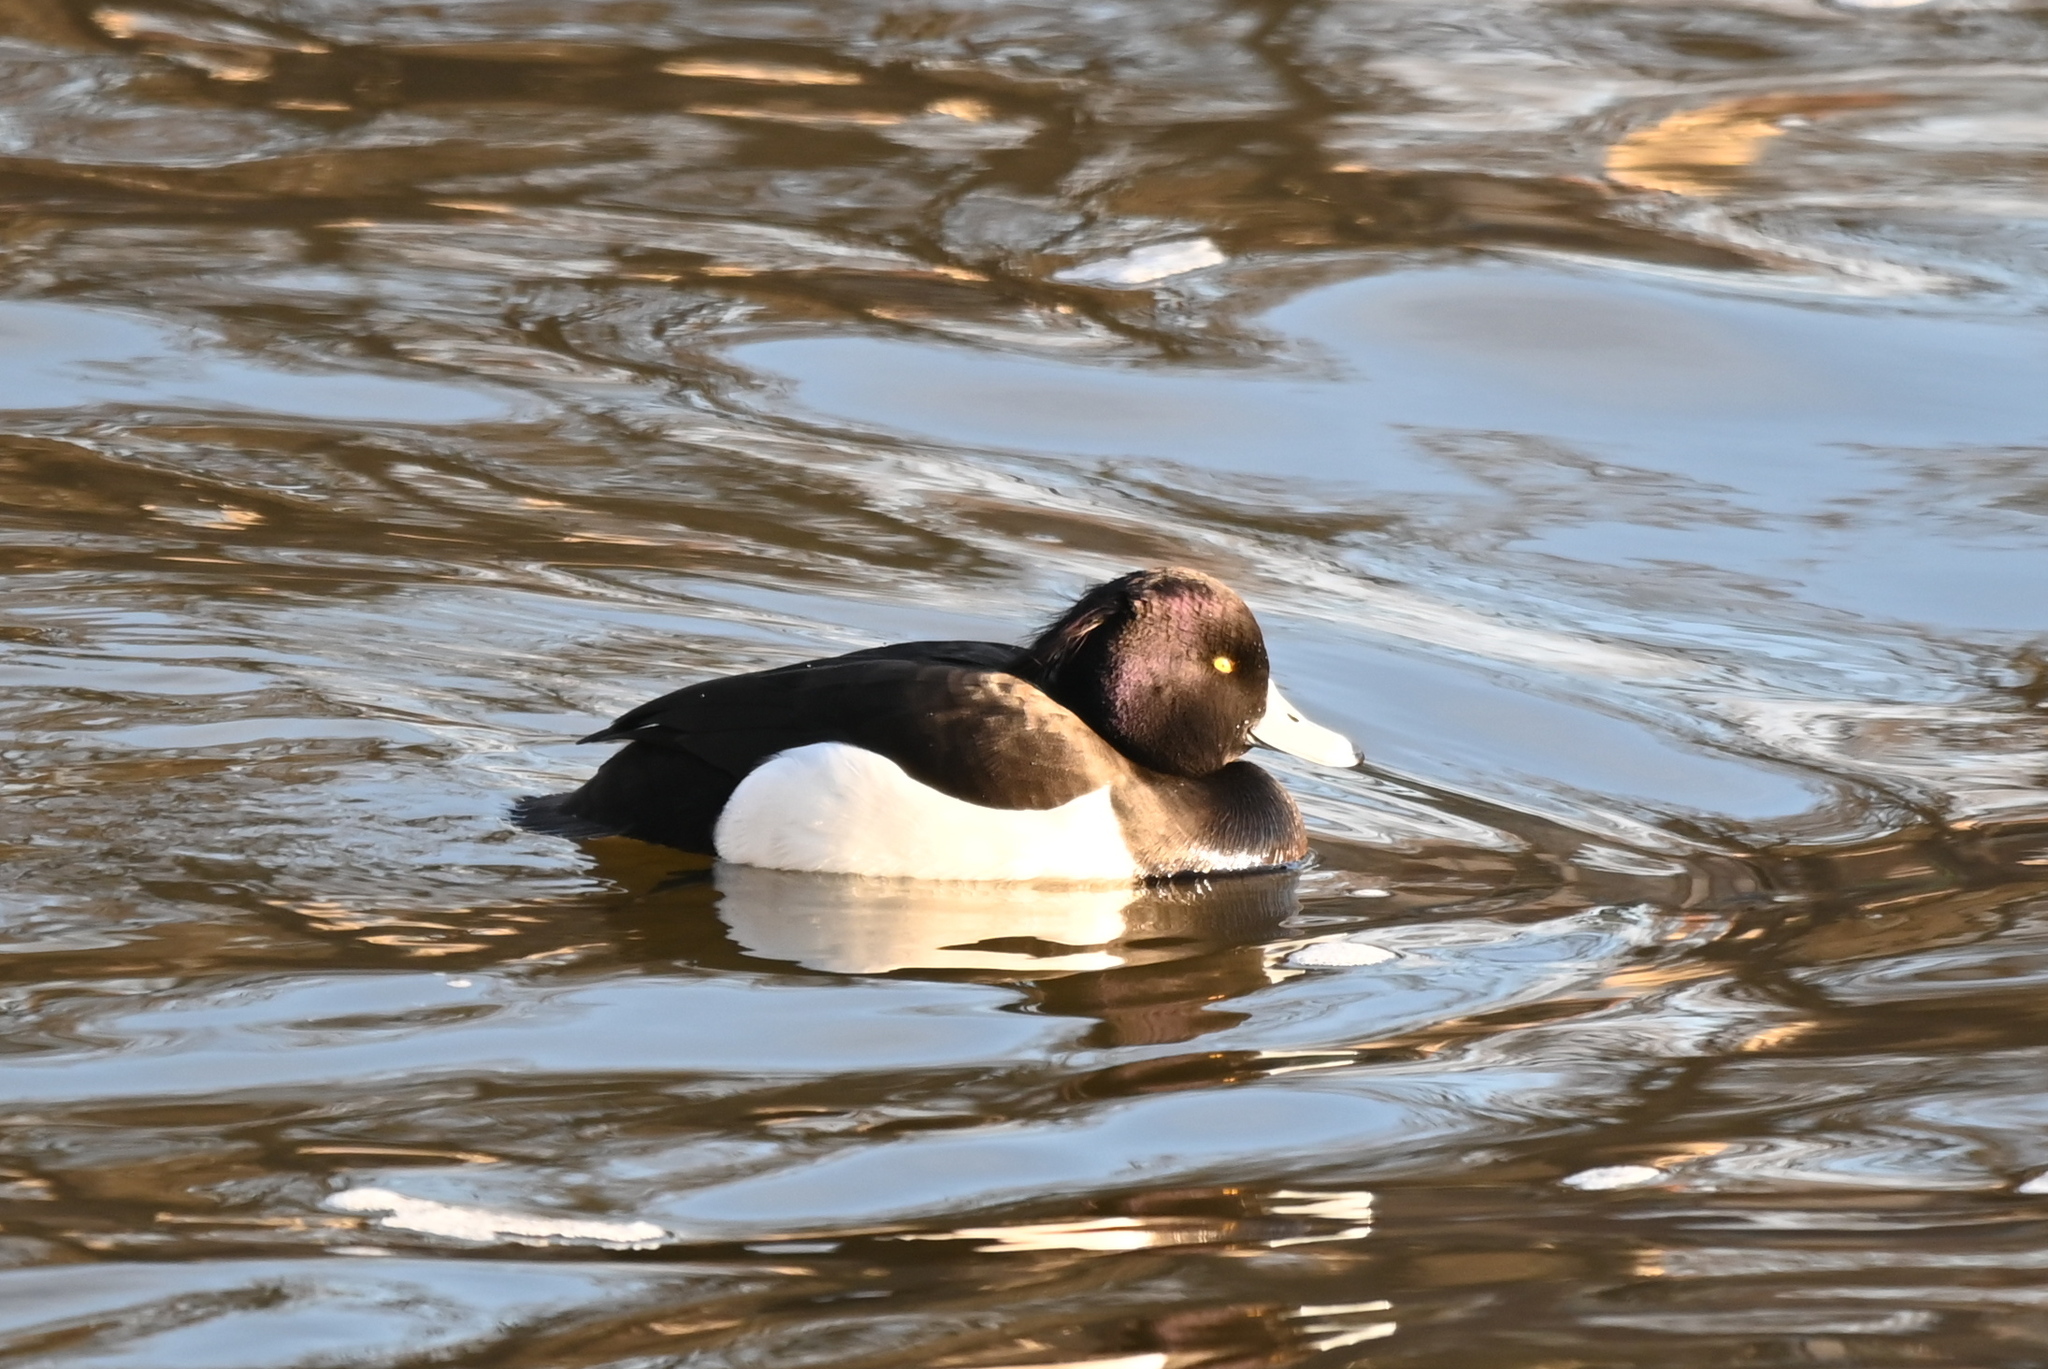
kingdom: Animalia
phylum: Chordata
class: Aves
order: Anseriformes
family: Anatidae
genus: Aythya
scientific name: Aythya fuligula
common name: Tufted duck
